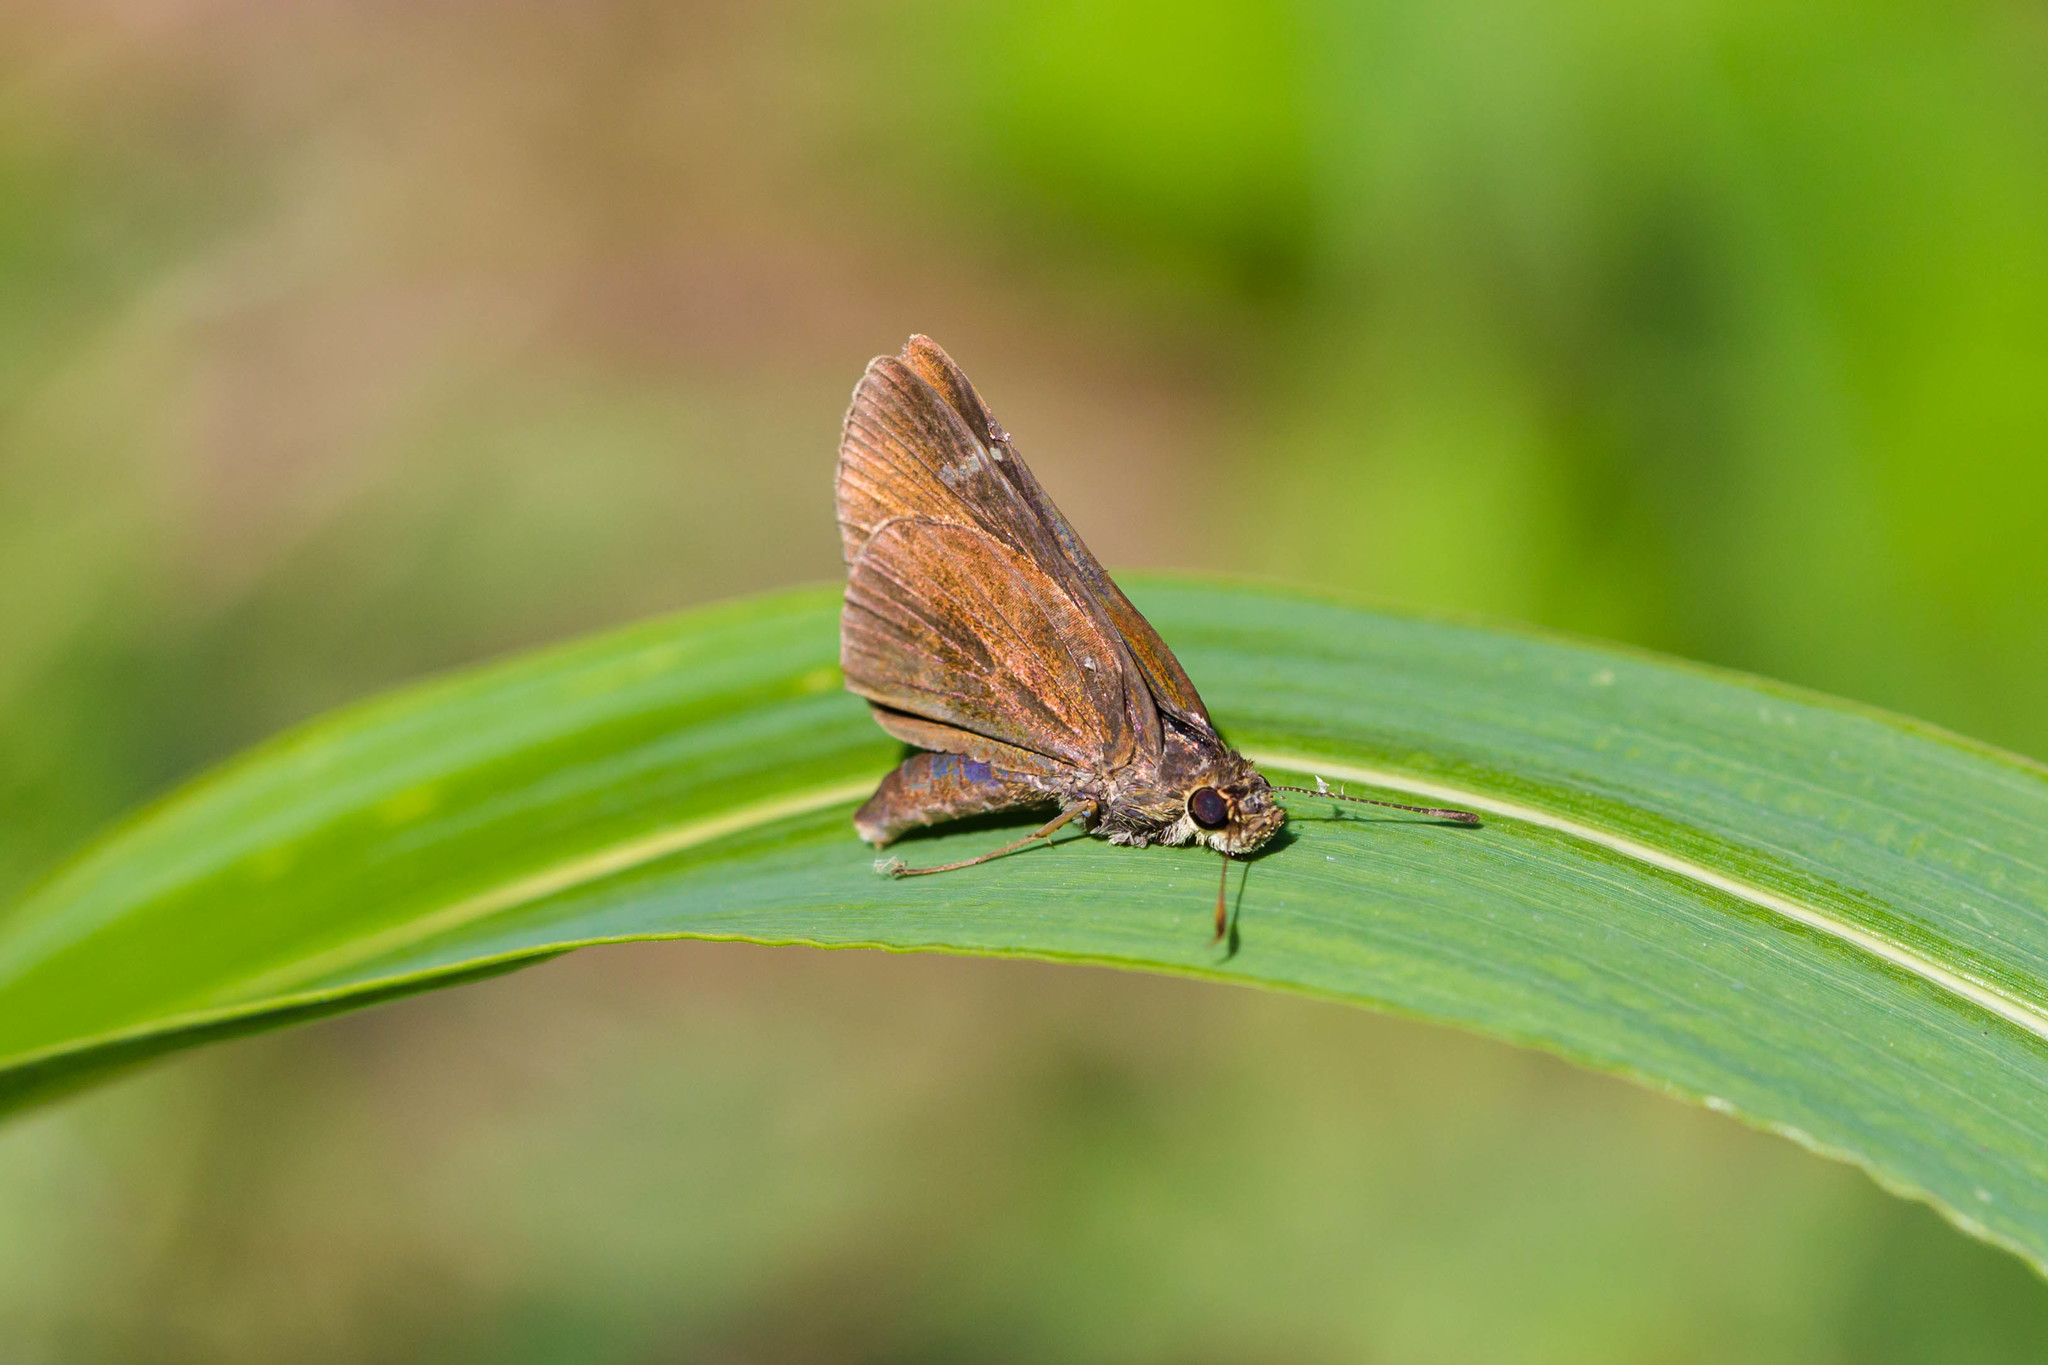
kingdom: Animalia
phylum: Arthropoda
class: Insecta
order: Lepidoptera
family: Hesperiidae
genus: Lerema
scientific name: Lerema accius
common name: Clouded skipper
